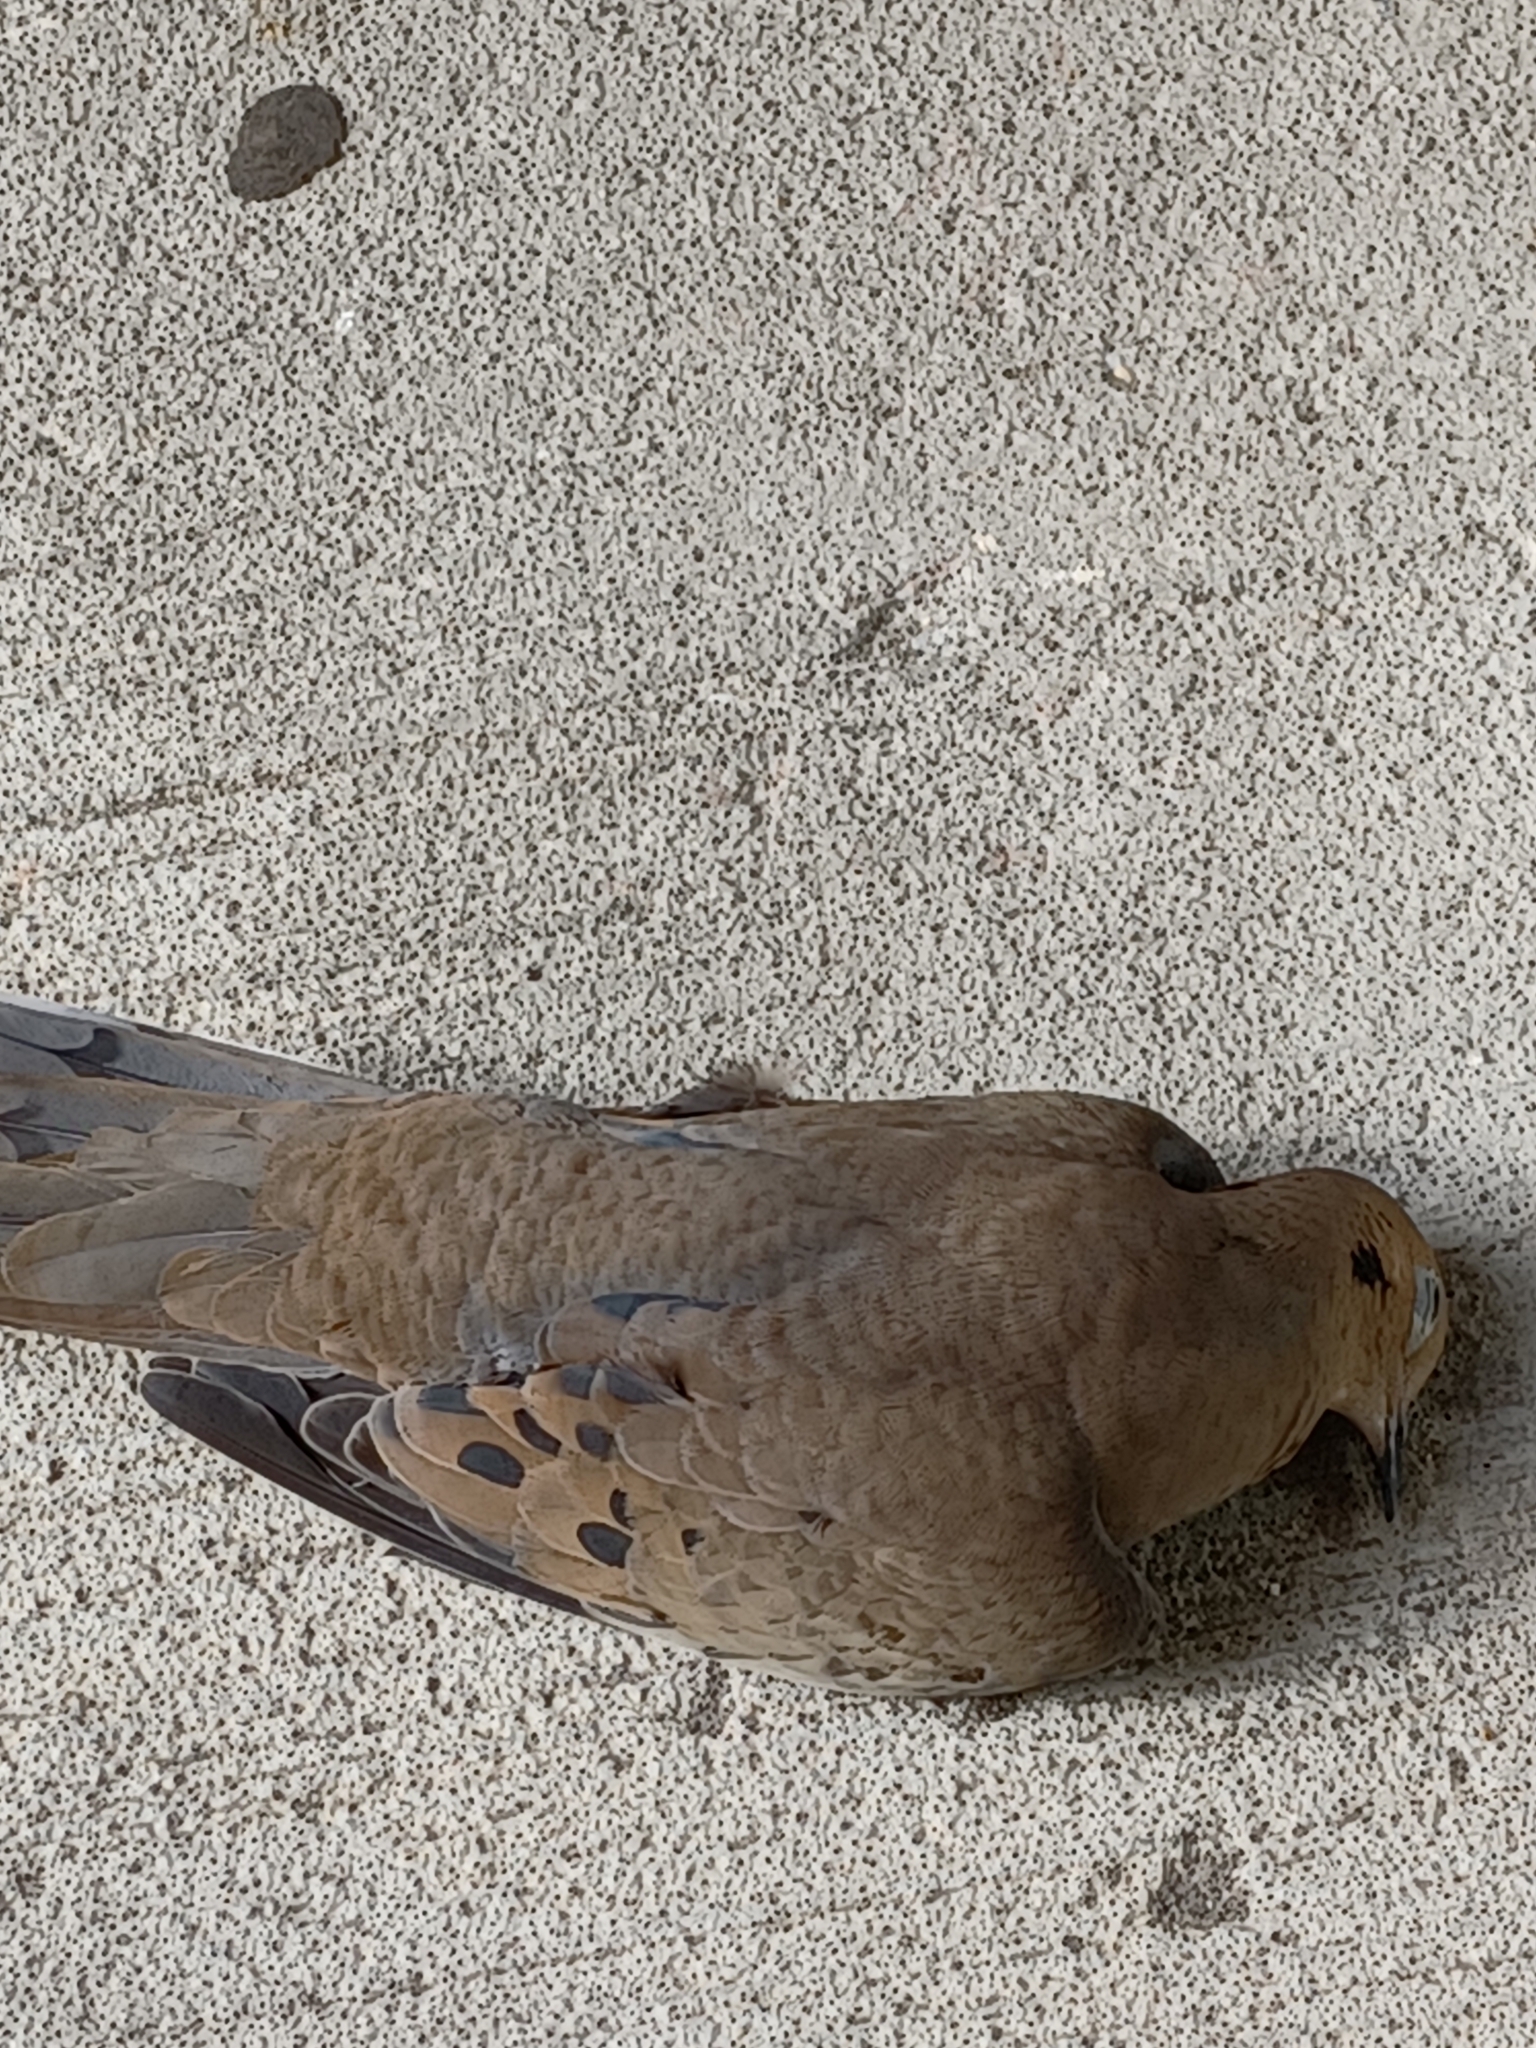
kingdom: Animalia
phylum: Chordata
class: Aves
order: Columbiformes
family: Columbidae
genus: Zenaida
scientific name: Zenaida macroura
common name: Mourning dove
